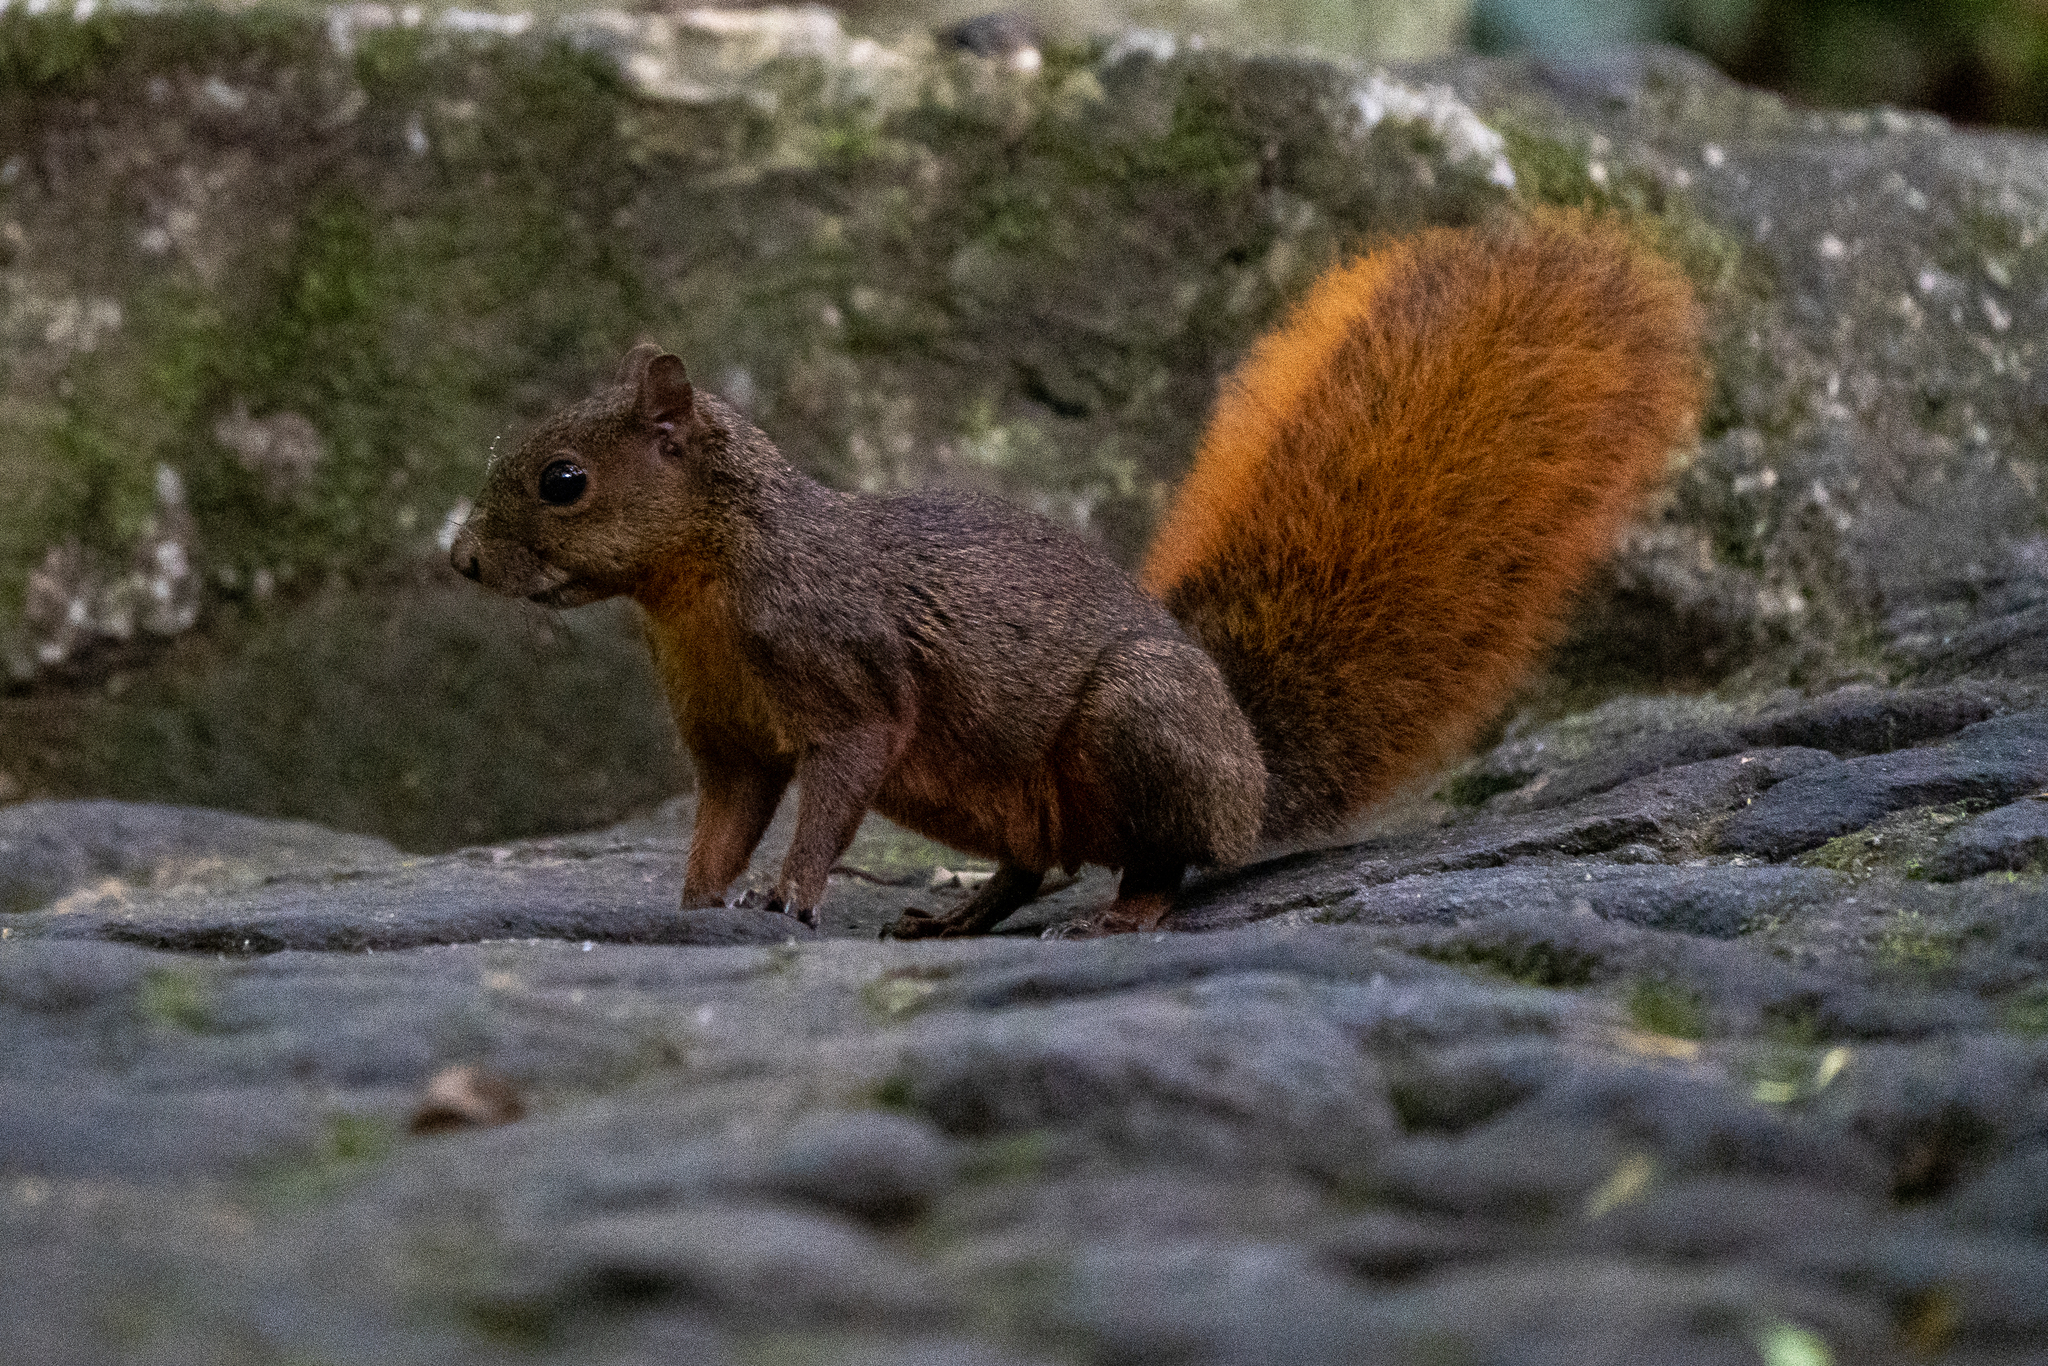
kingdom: Animalia
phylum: Chordata
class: Mammalia
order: Rodentia
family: Sciuridae
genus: Sciurus
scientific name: Sciurus granatensis
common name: Red-tailed squirrel
